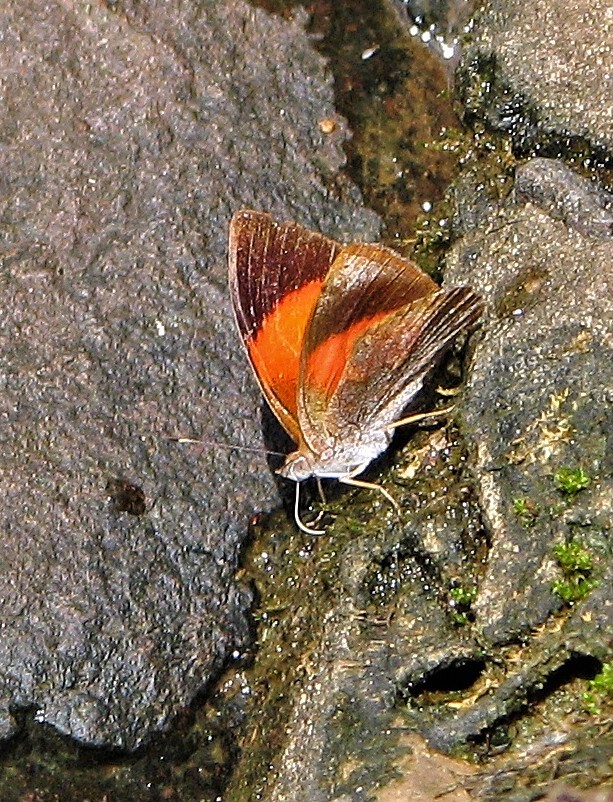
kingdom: Animalia
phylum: Arthropoda
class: Insecta
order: Lepidoptera
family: Nymphalidae
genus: Haematera
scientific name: Haematera pyrame
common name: Blind eighty-eight
